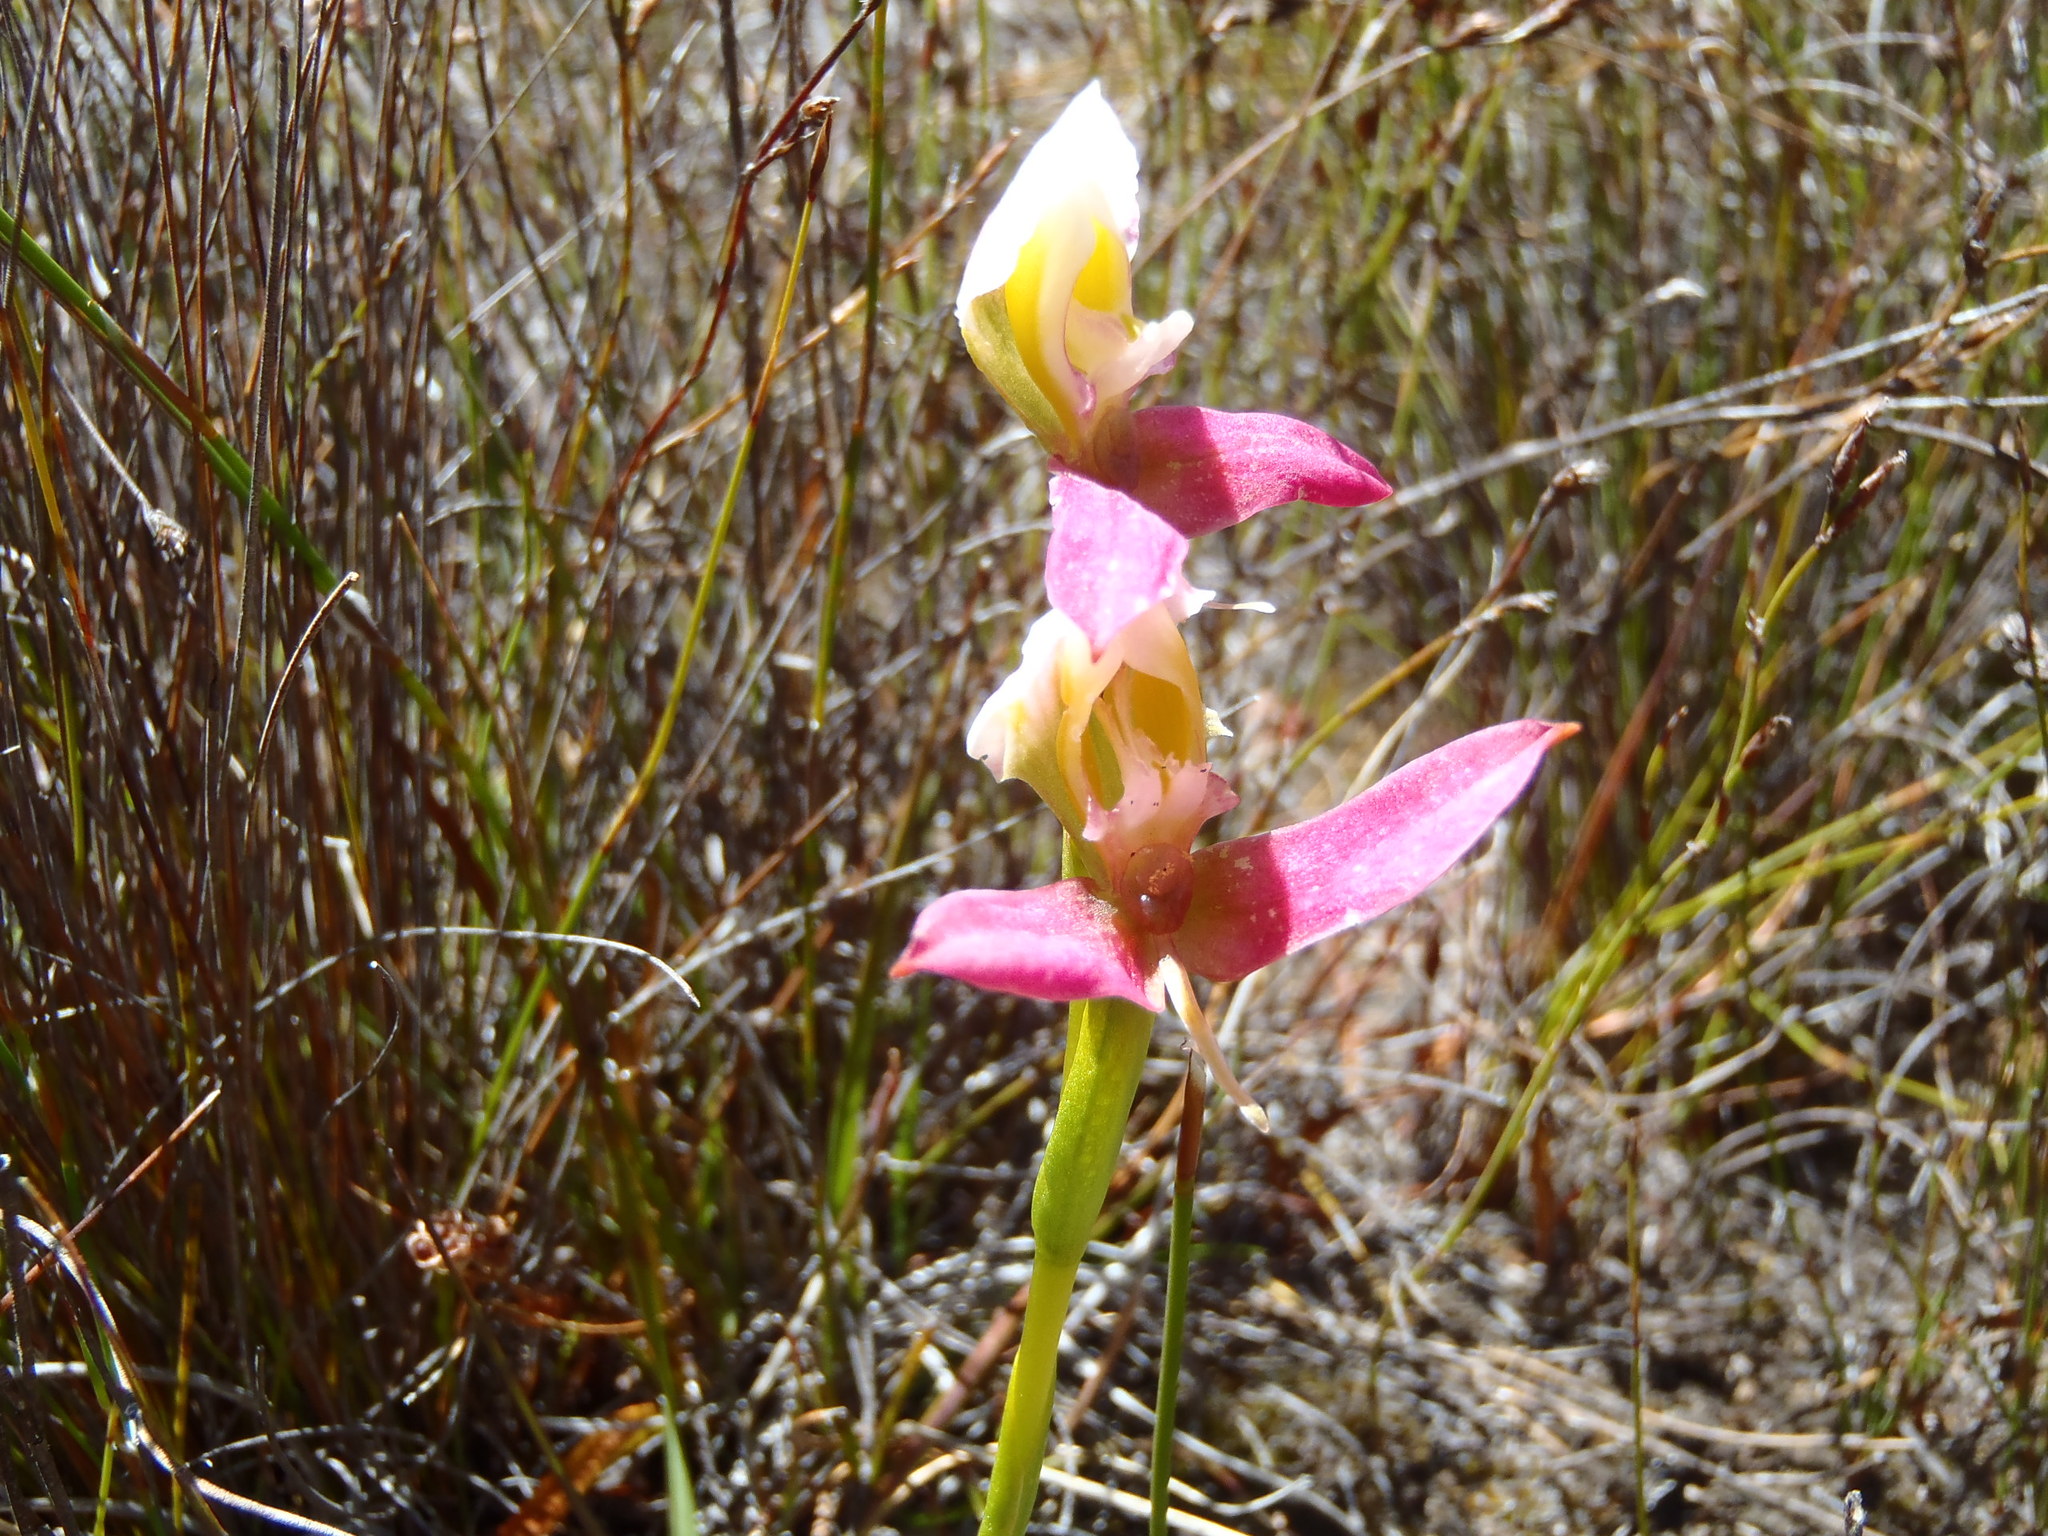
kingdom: Plantae
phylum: Tracheophyta
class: Liliopsida
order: Asparagales
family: Orchidaceae
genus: Disa
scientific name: Disa filicornis
